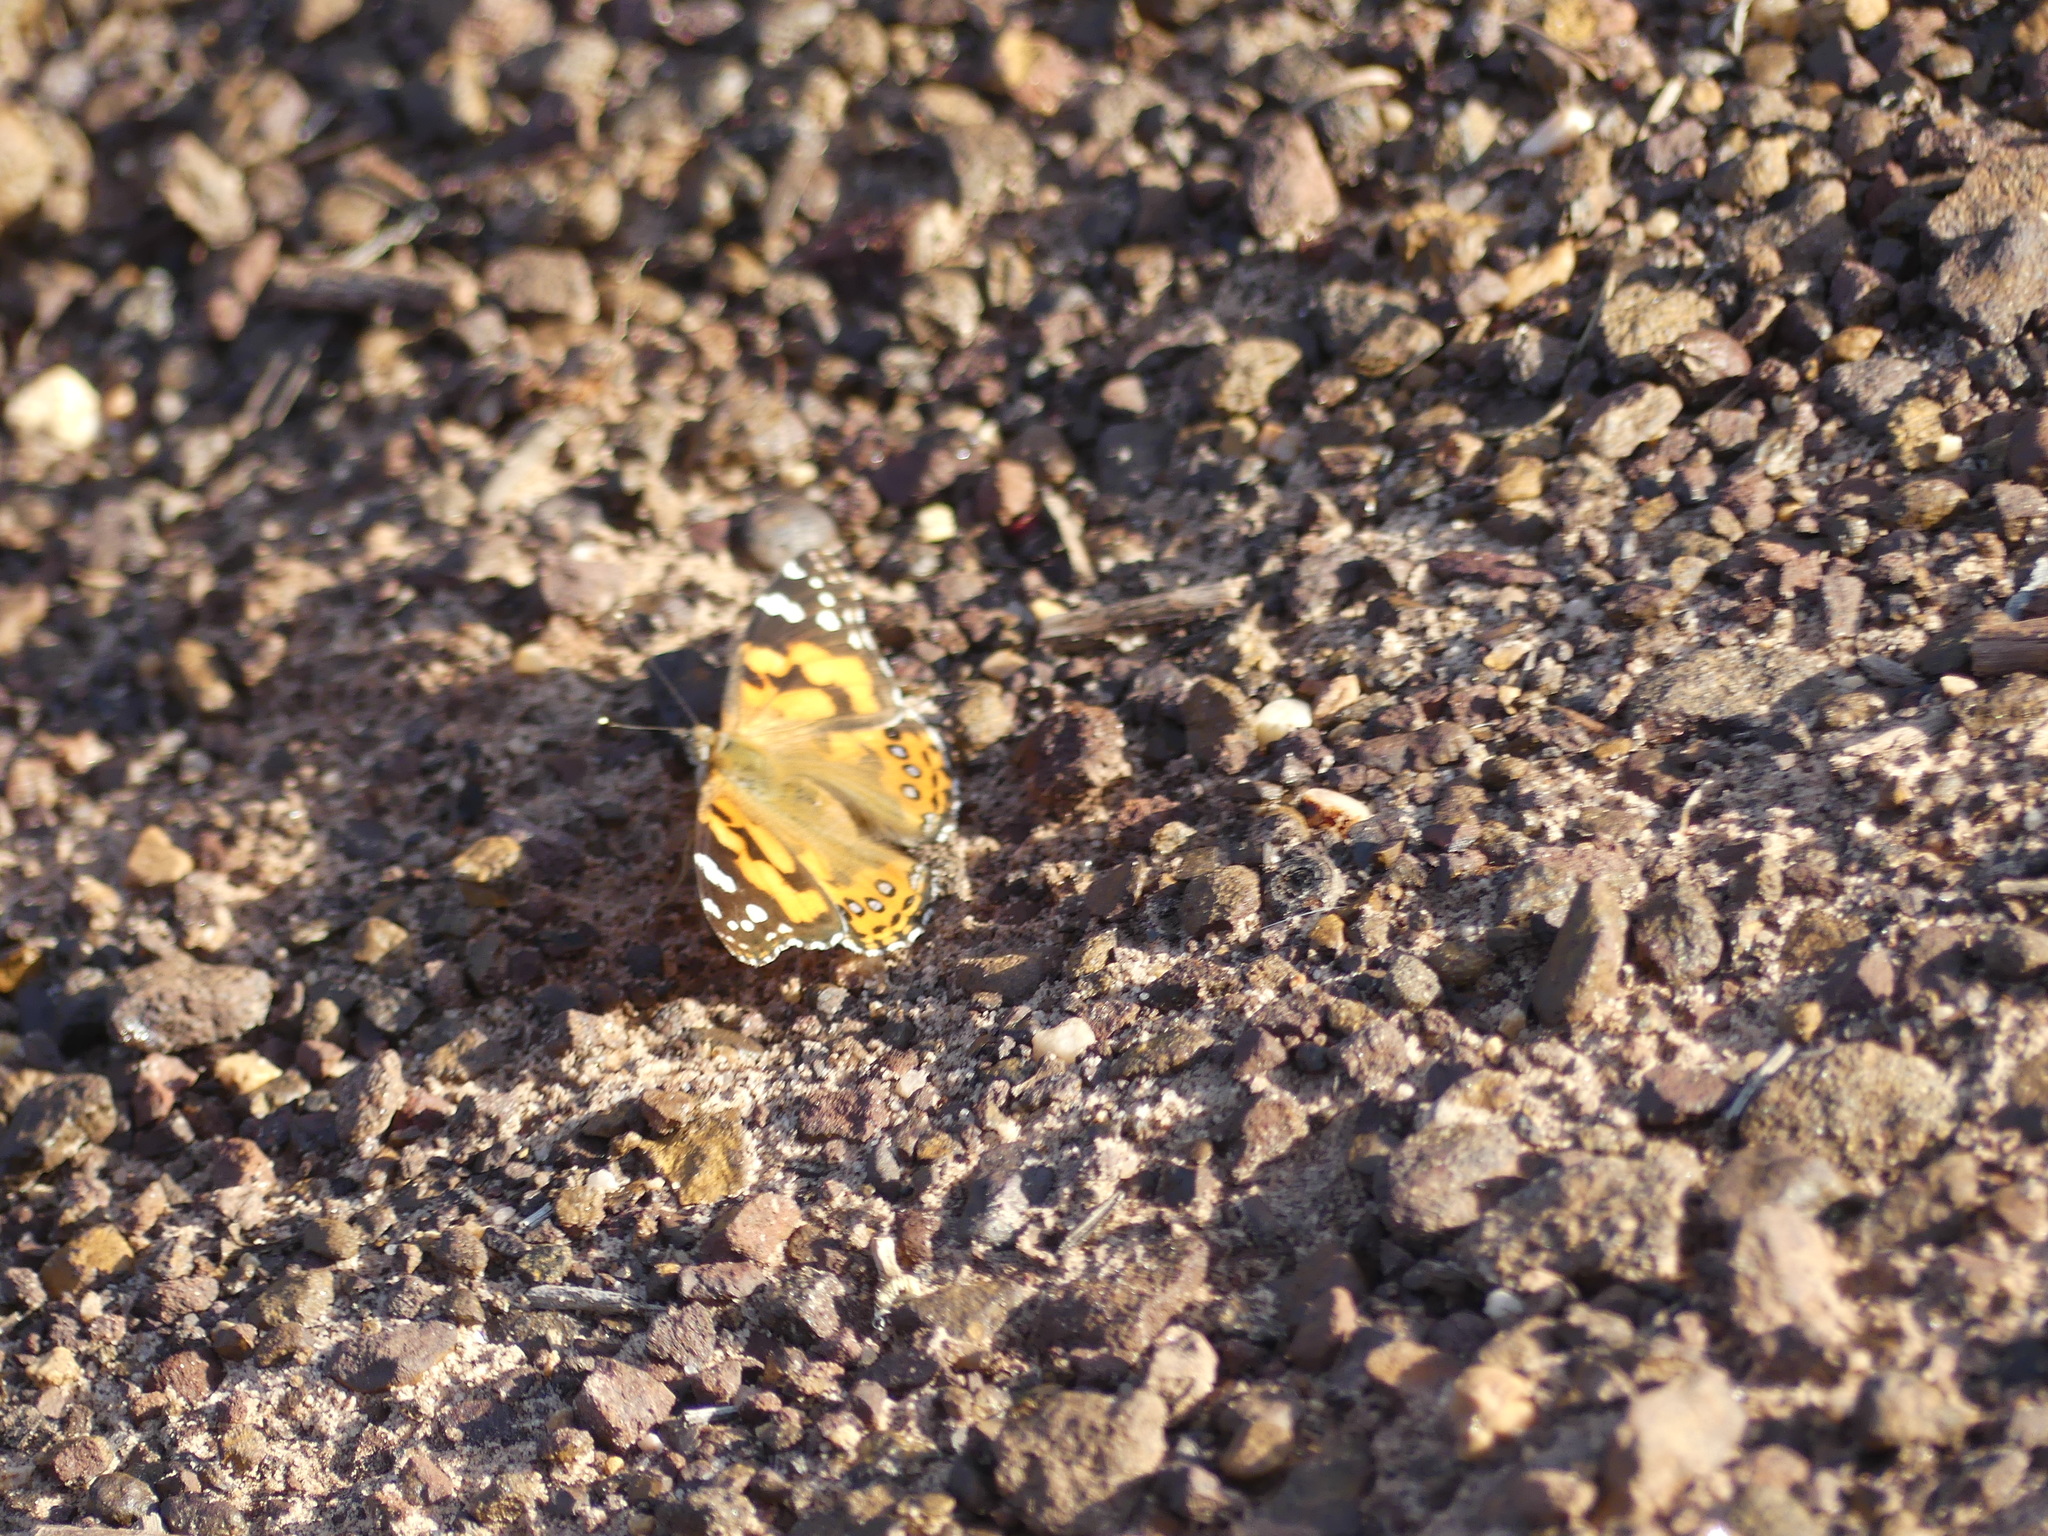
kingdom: Animalia
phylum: Arthropoda
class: Insecta
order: Lepidoptera
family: Nymphalidae
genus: Vanessa
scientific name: Vanessa kershawi
